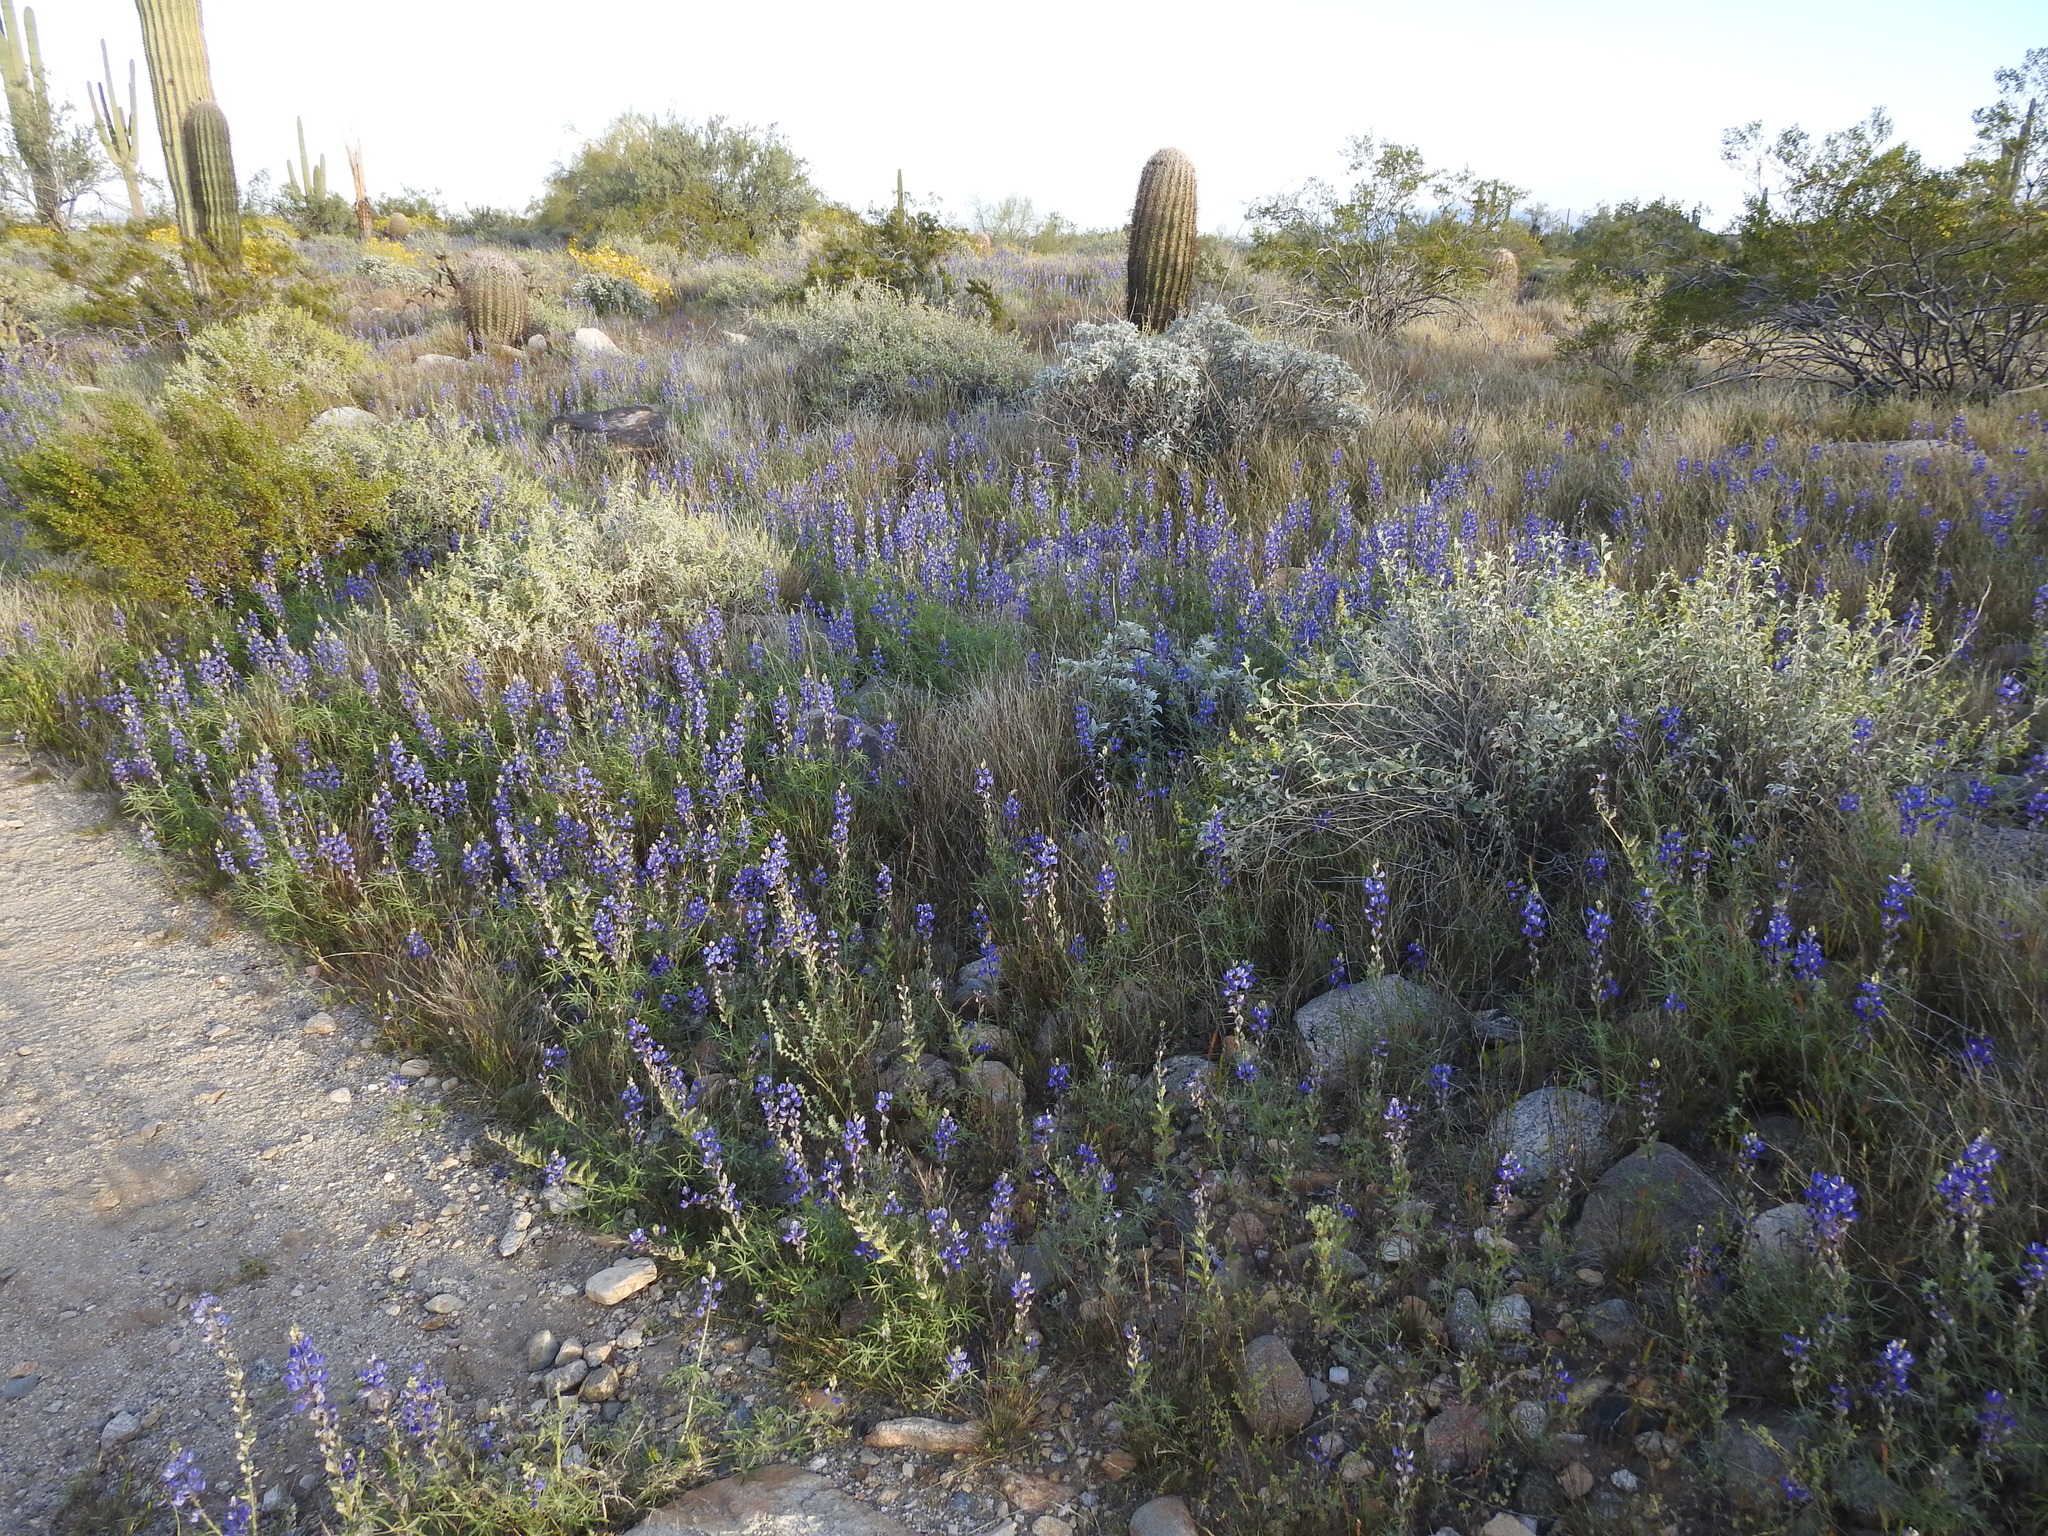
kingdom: Plantae
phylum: Tracheophyta
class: Magnoliopsida
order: Fabales
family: Fabaceae
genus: Lupinus
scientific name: Lupinus sparsiflorus
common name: Coulter's lupine
